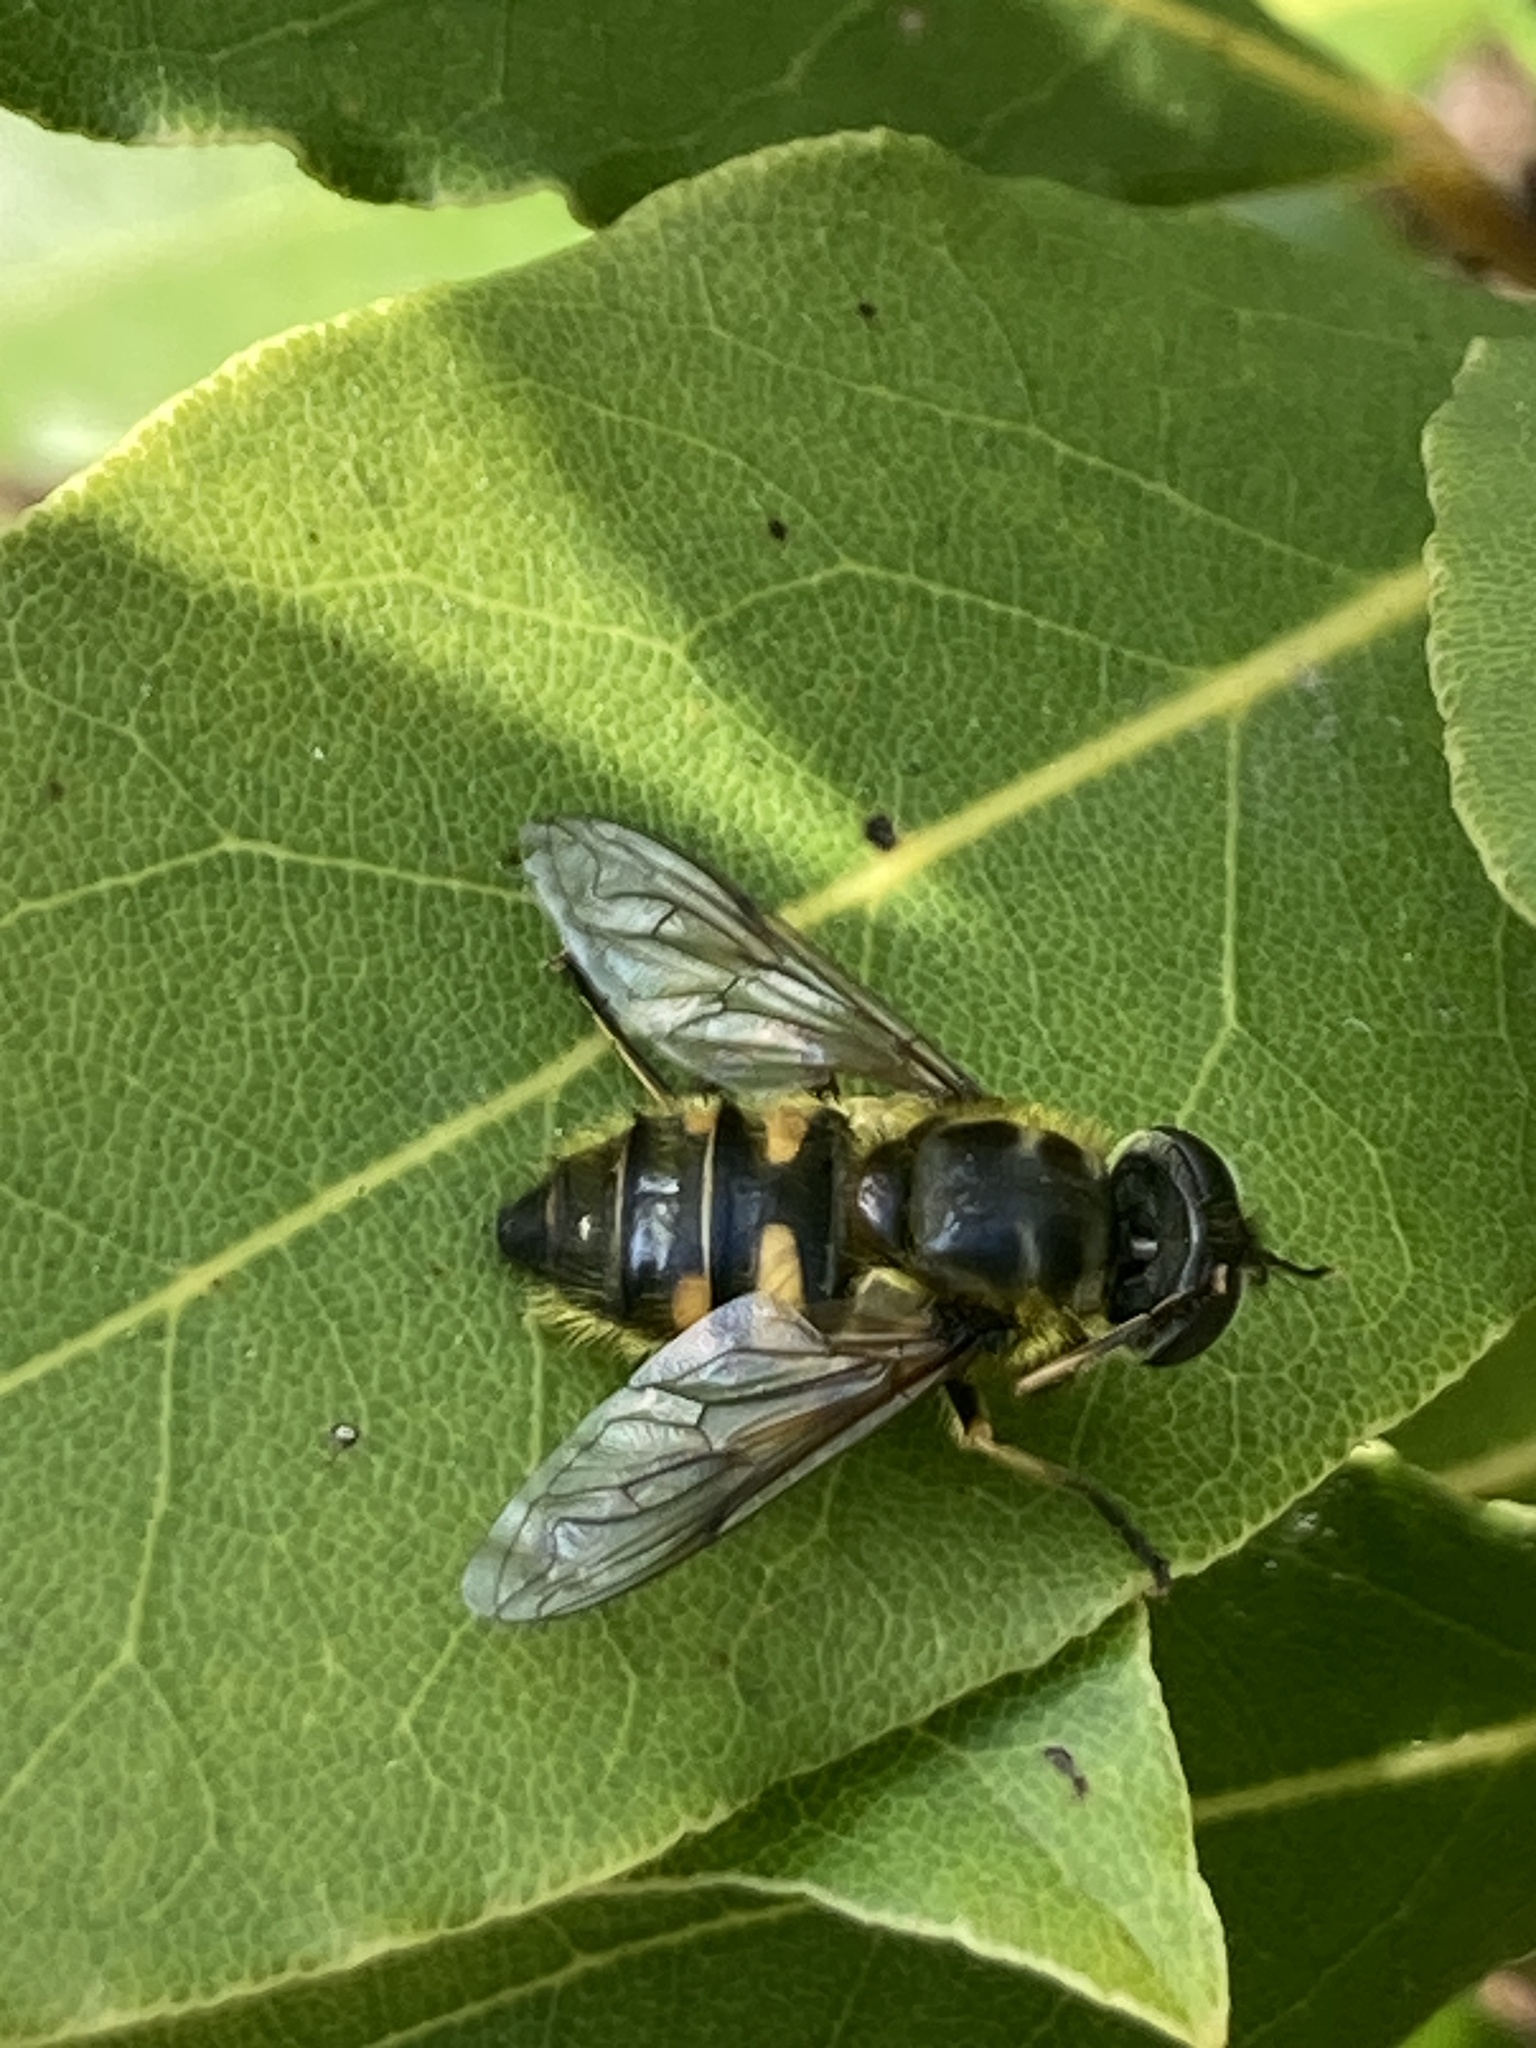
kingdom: Animalia
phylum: Arthropoda
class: Insecta
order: Diptera
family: Syrphidae
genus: Myathropa
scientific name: Myathropa florea
